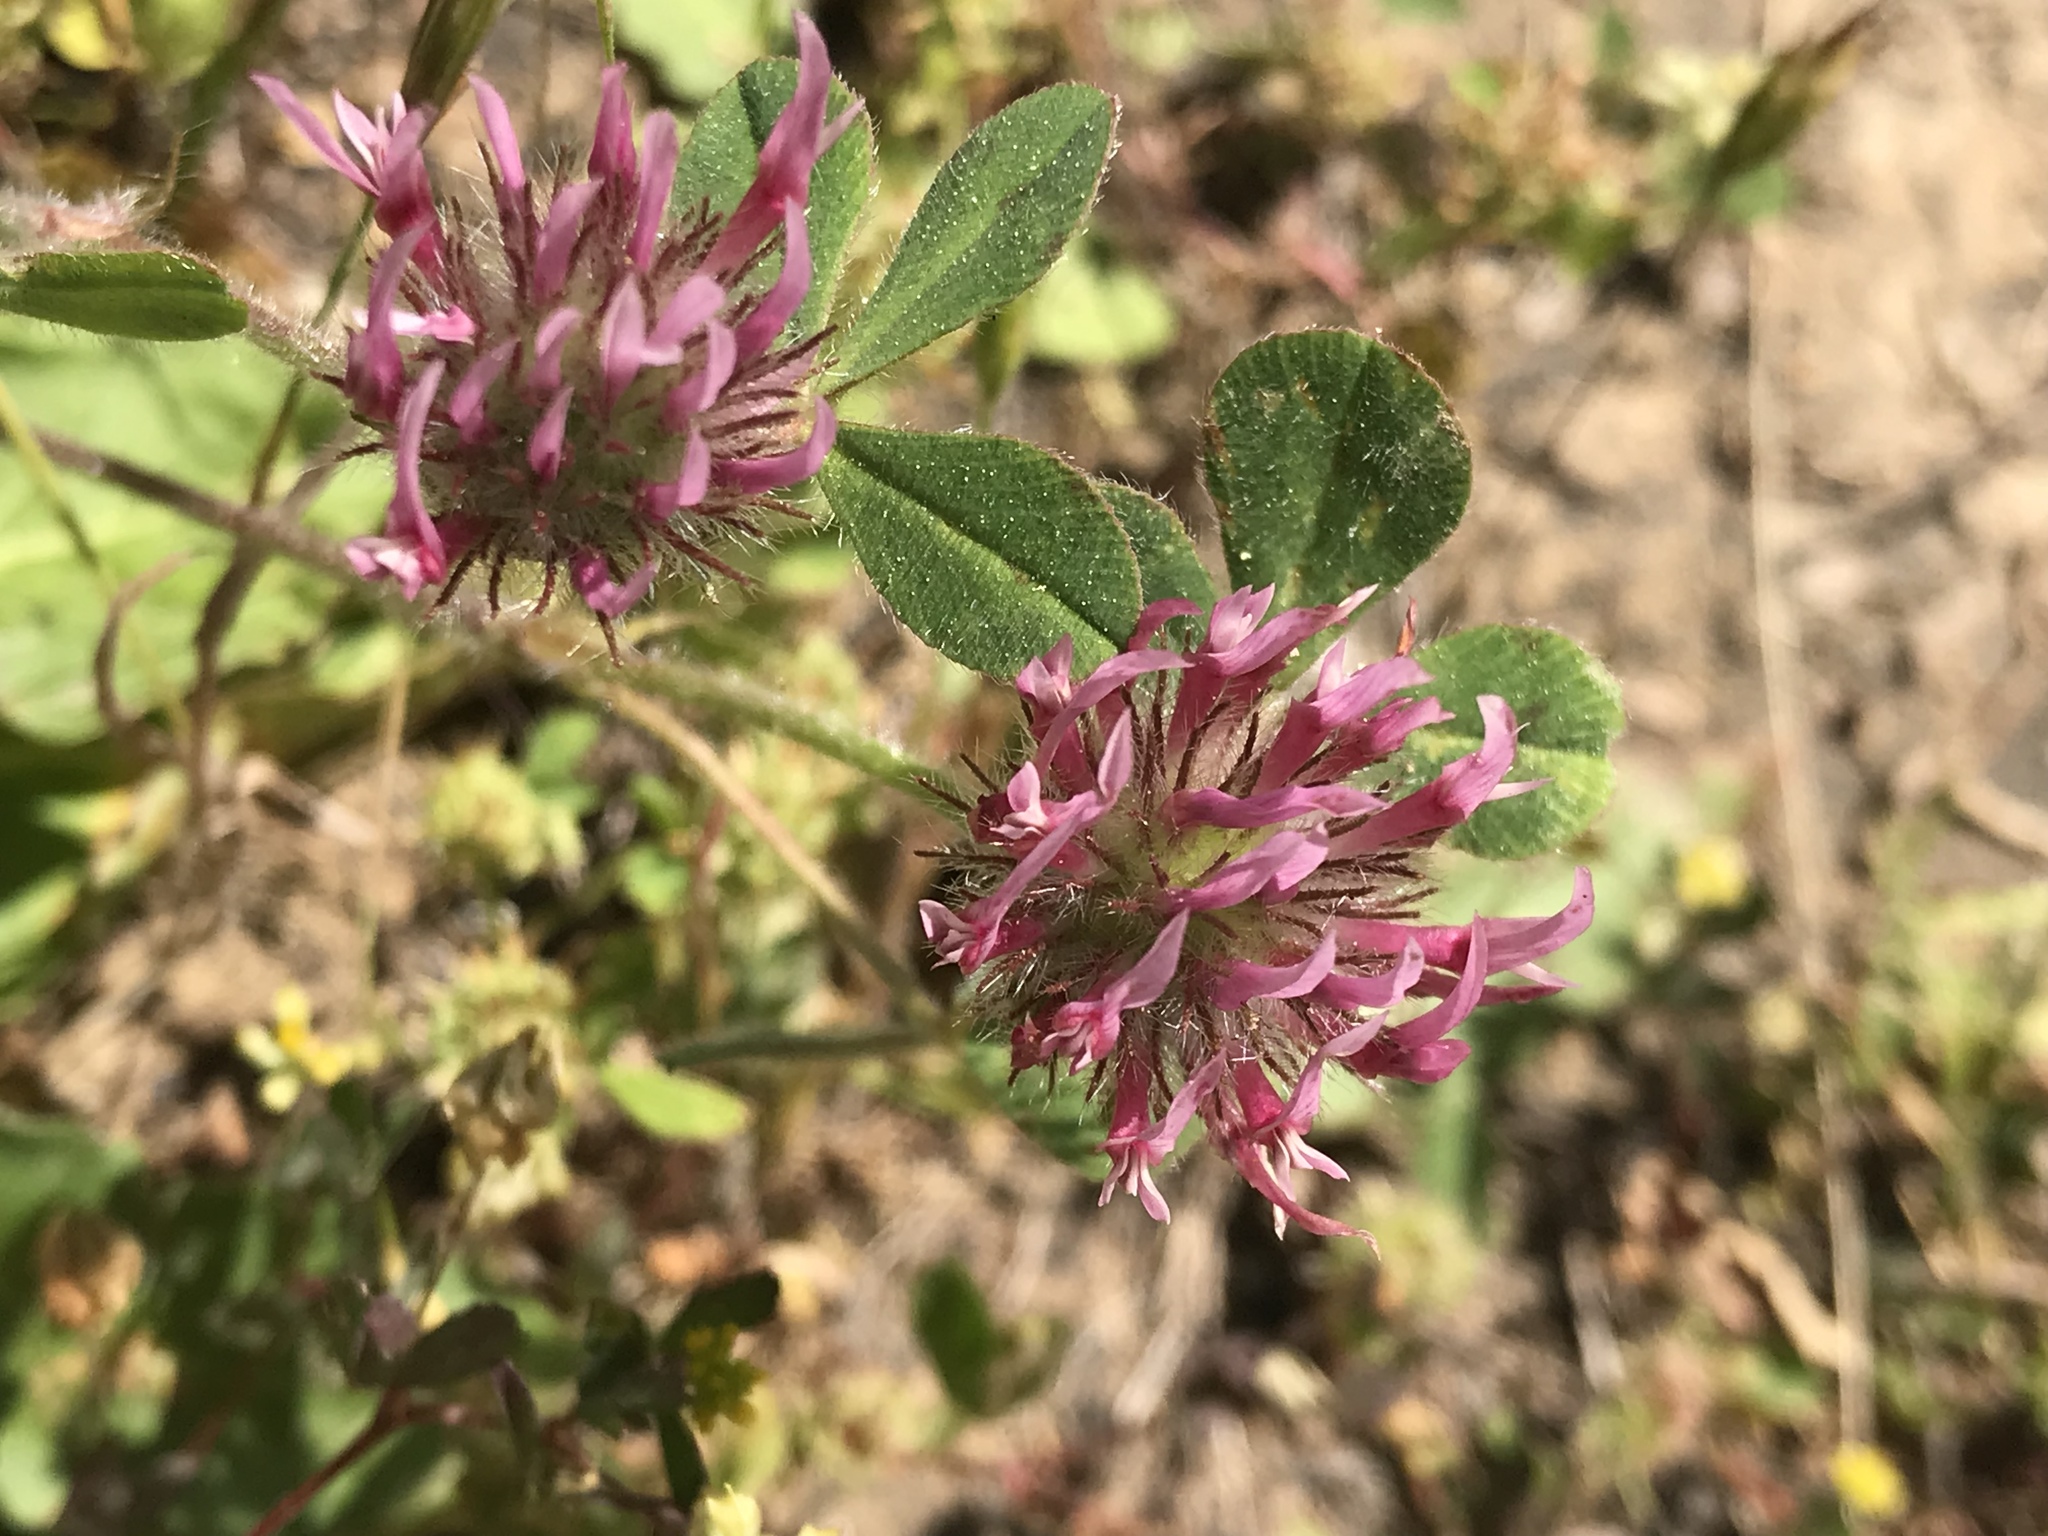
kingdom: Plantae
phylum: Tracheophyta
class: Magnoliopsida
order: Fabales
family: Fabaceae
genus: Trifolium
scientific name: Trifolium hirtum
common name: Rose clover
